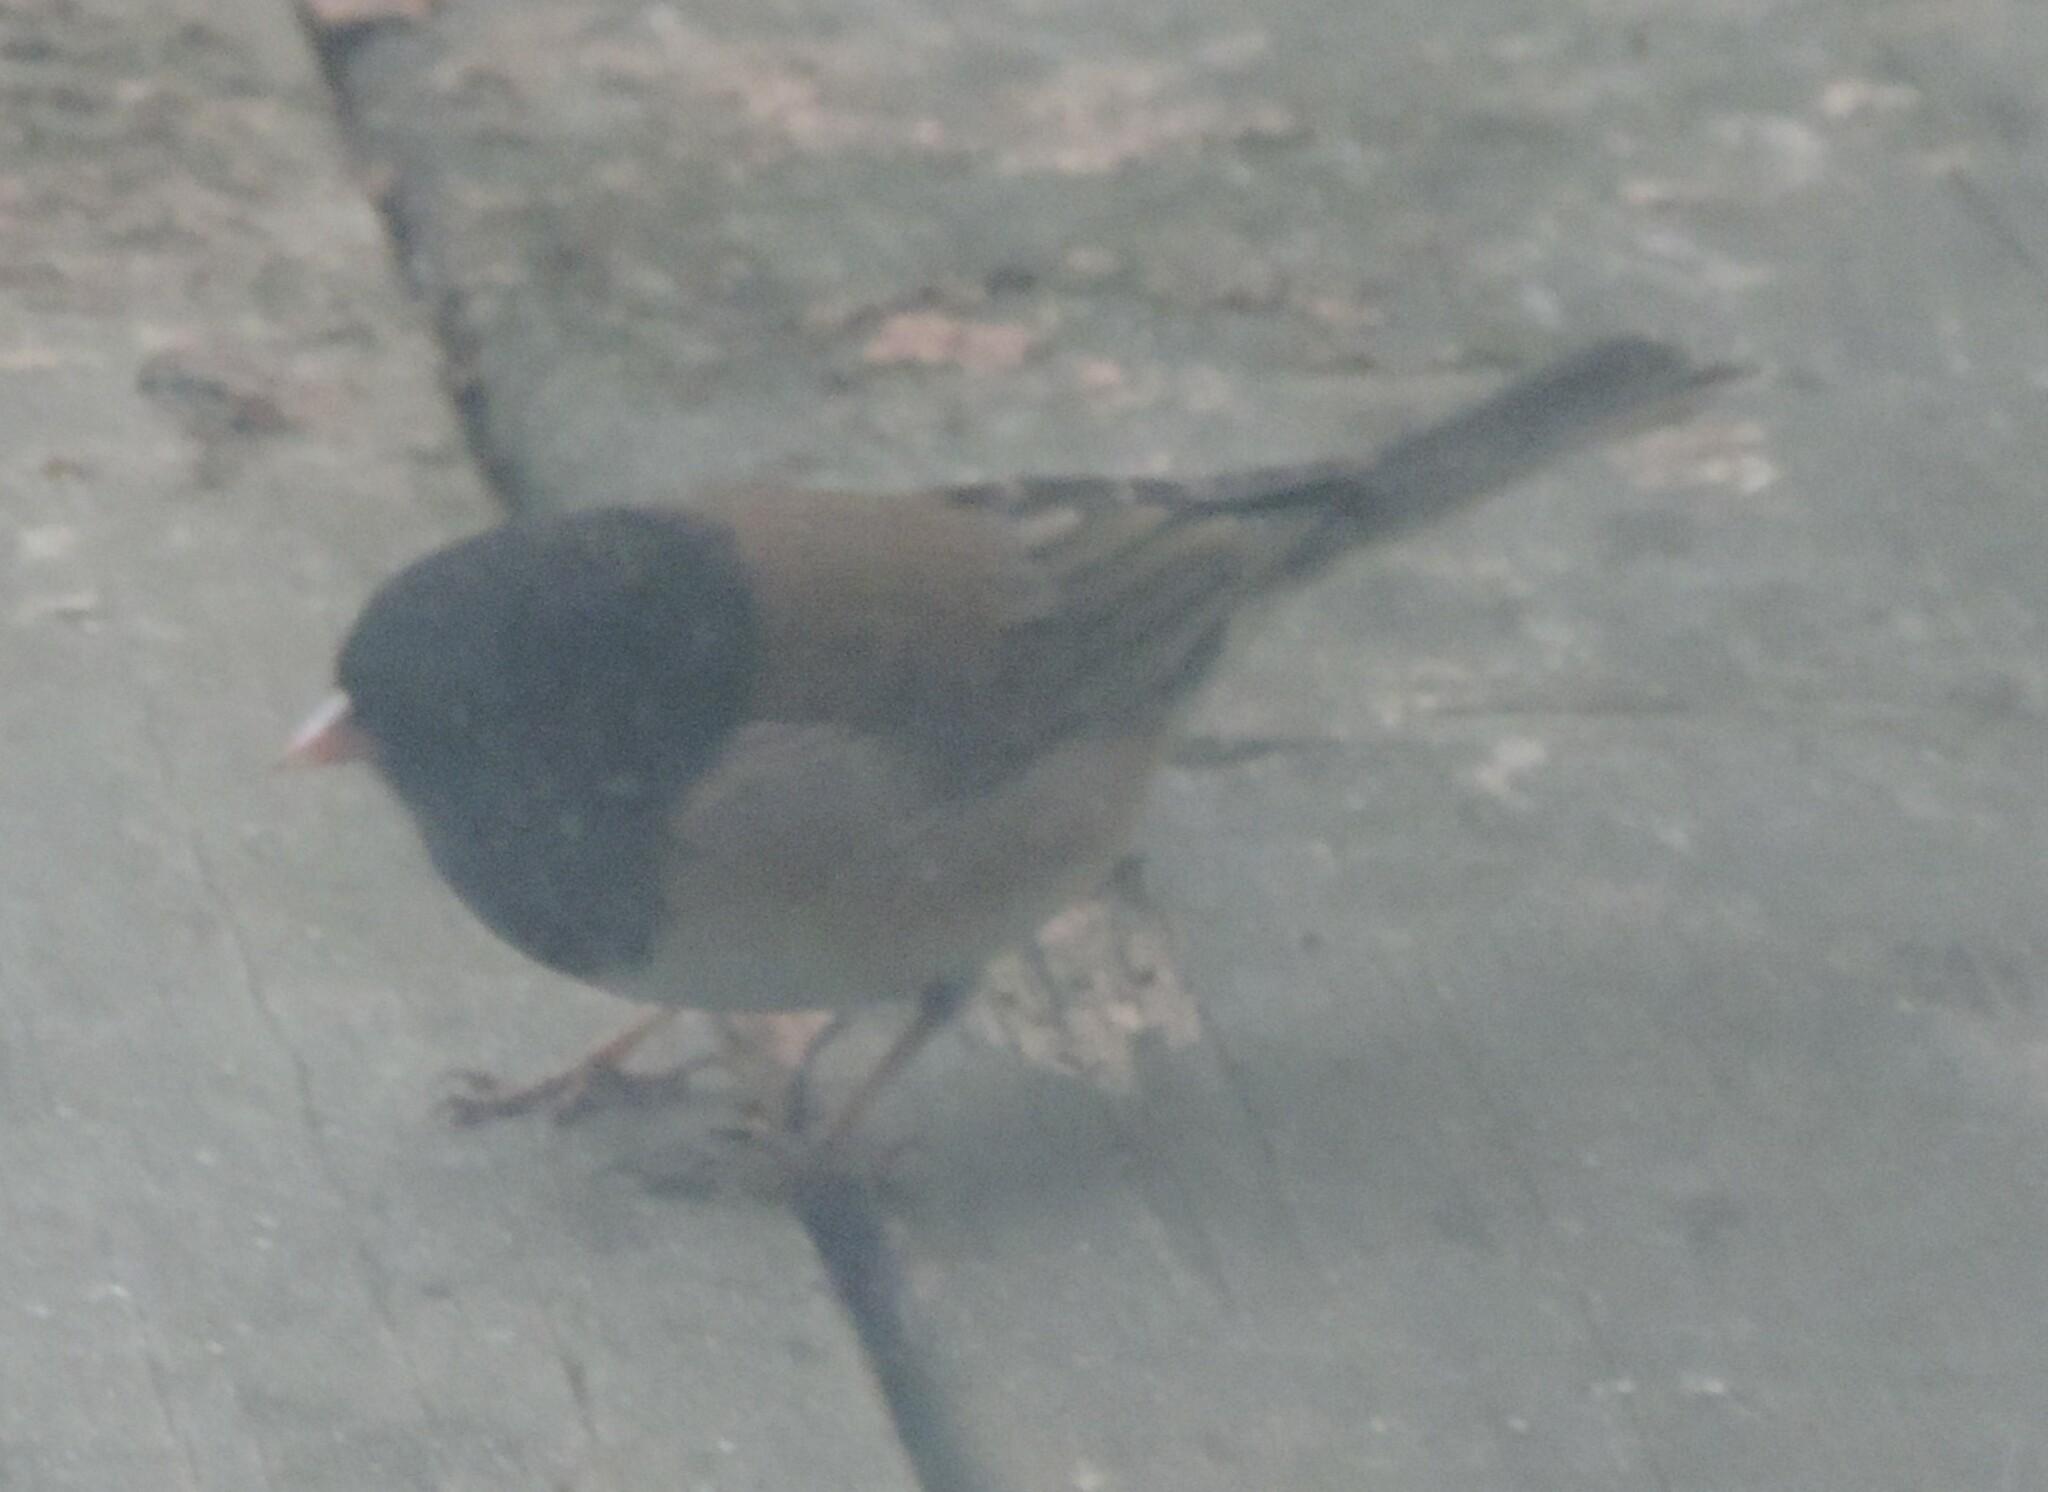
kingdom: Animalia
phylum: Chordata
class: Aves
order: Passeriformes
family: Passerellidae
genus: Junco
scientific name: Junco hyemalis
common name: Dark-eyed junco
